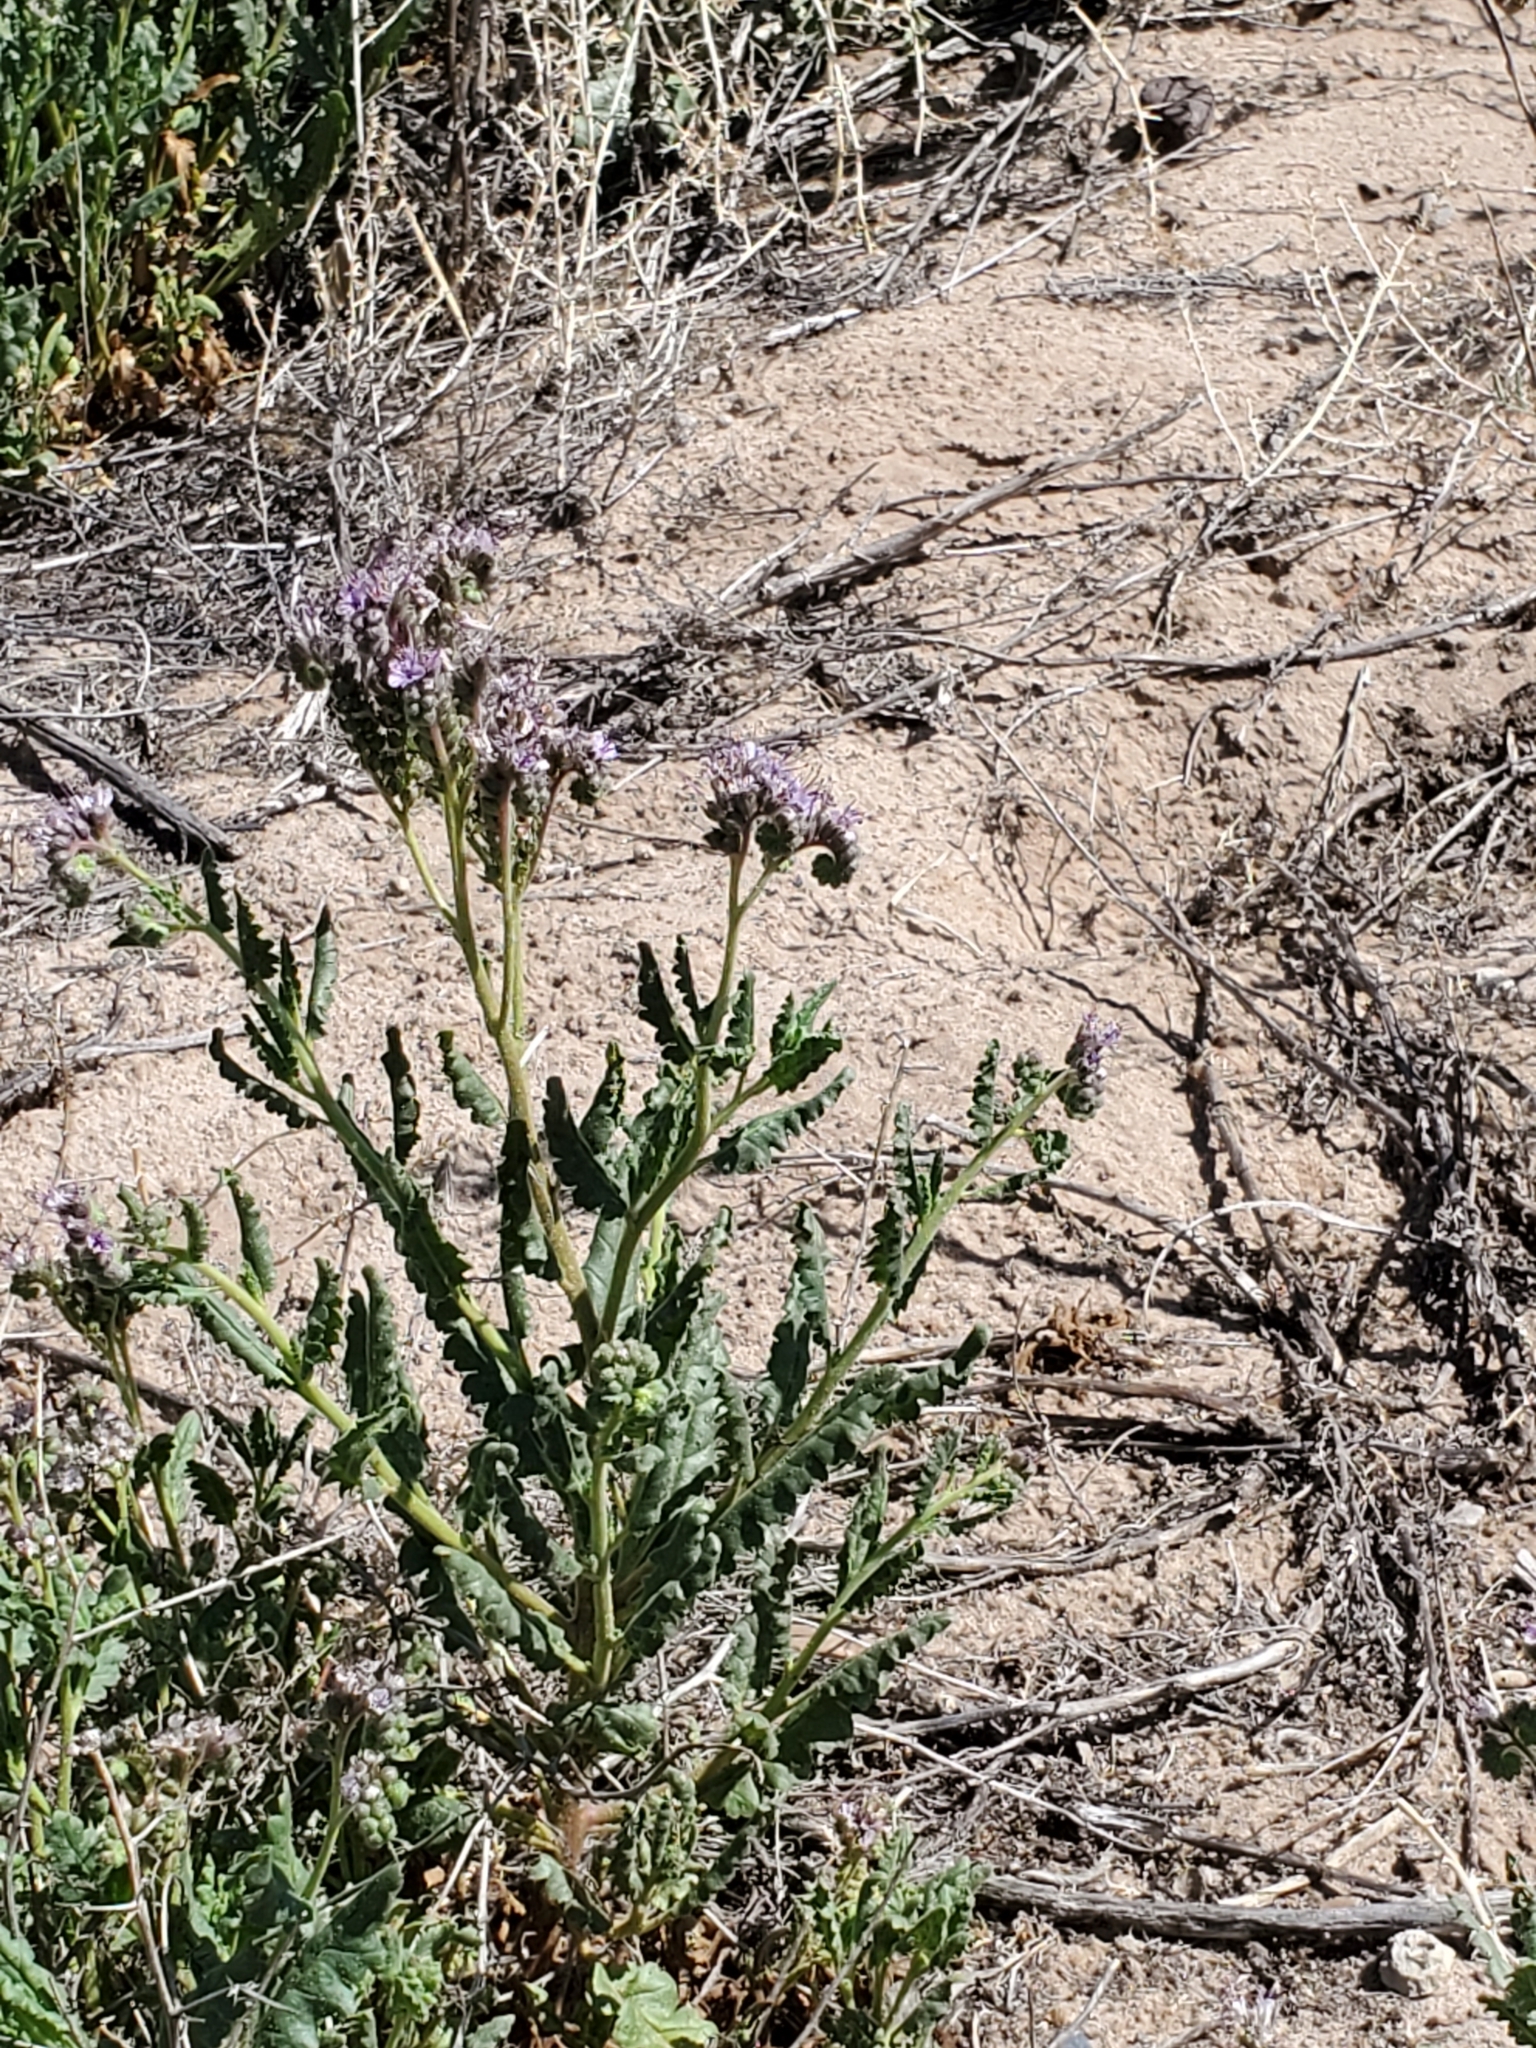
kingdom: Plantae
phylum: Tracheophyta
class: Magnoliopsida
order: Boraginales
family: Hydrophyllaceae
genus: Phacelia
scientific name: Phacelia integrifolia
